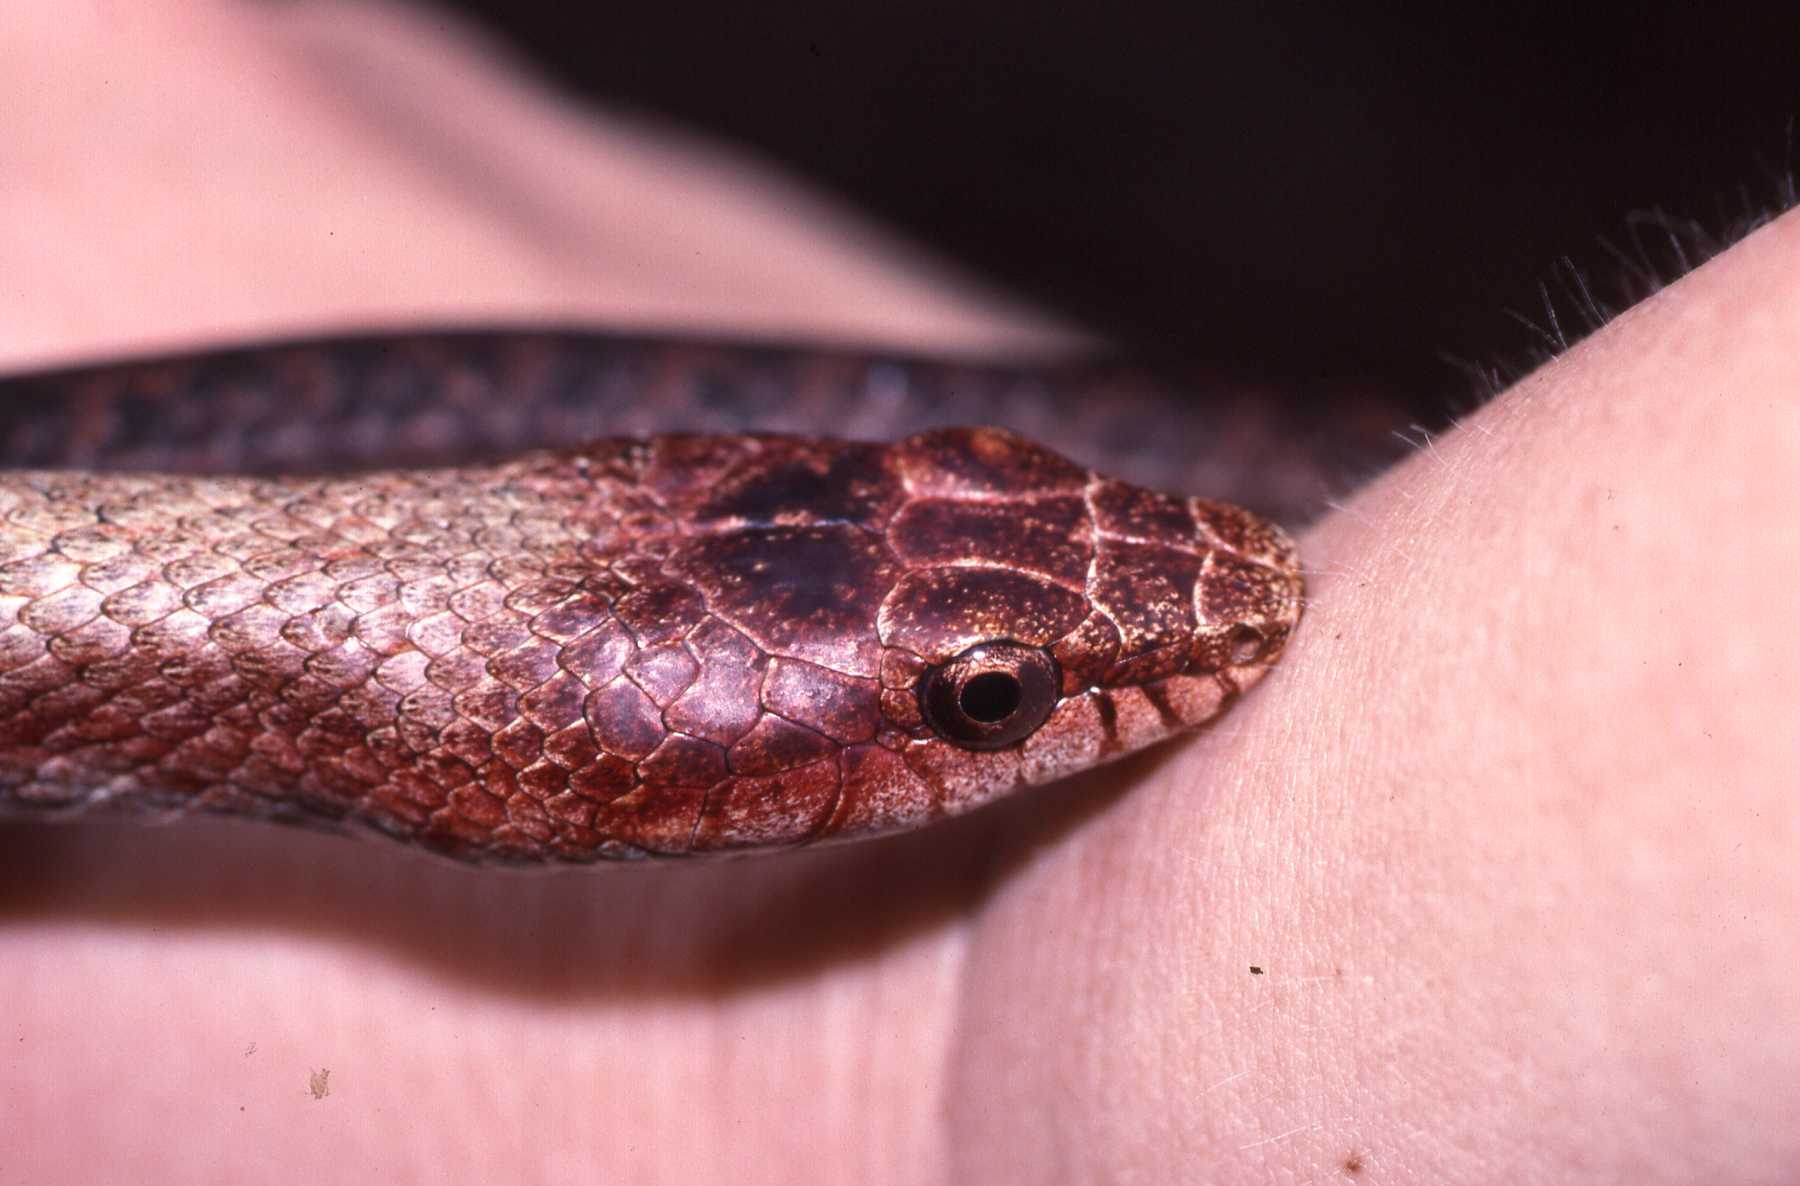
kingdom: Animalia
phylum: Chordata
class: Squamata
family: Pseudoxyrhophiidae
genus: Ithycyphus
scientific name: Ithycyphus miniatus
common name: Tiny night snake
